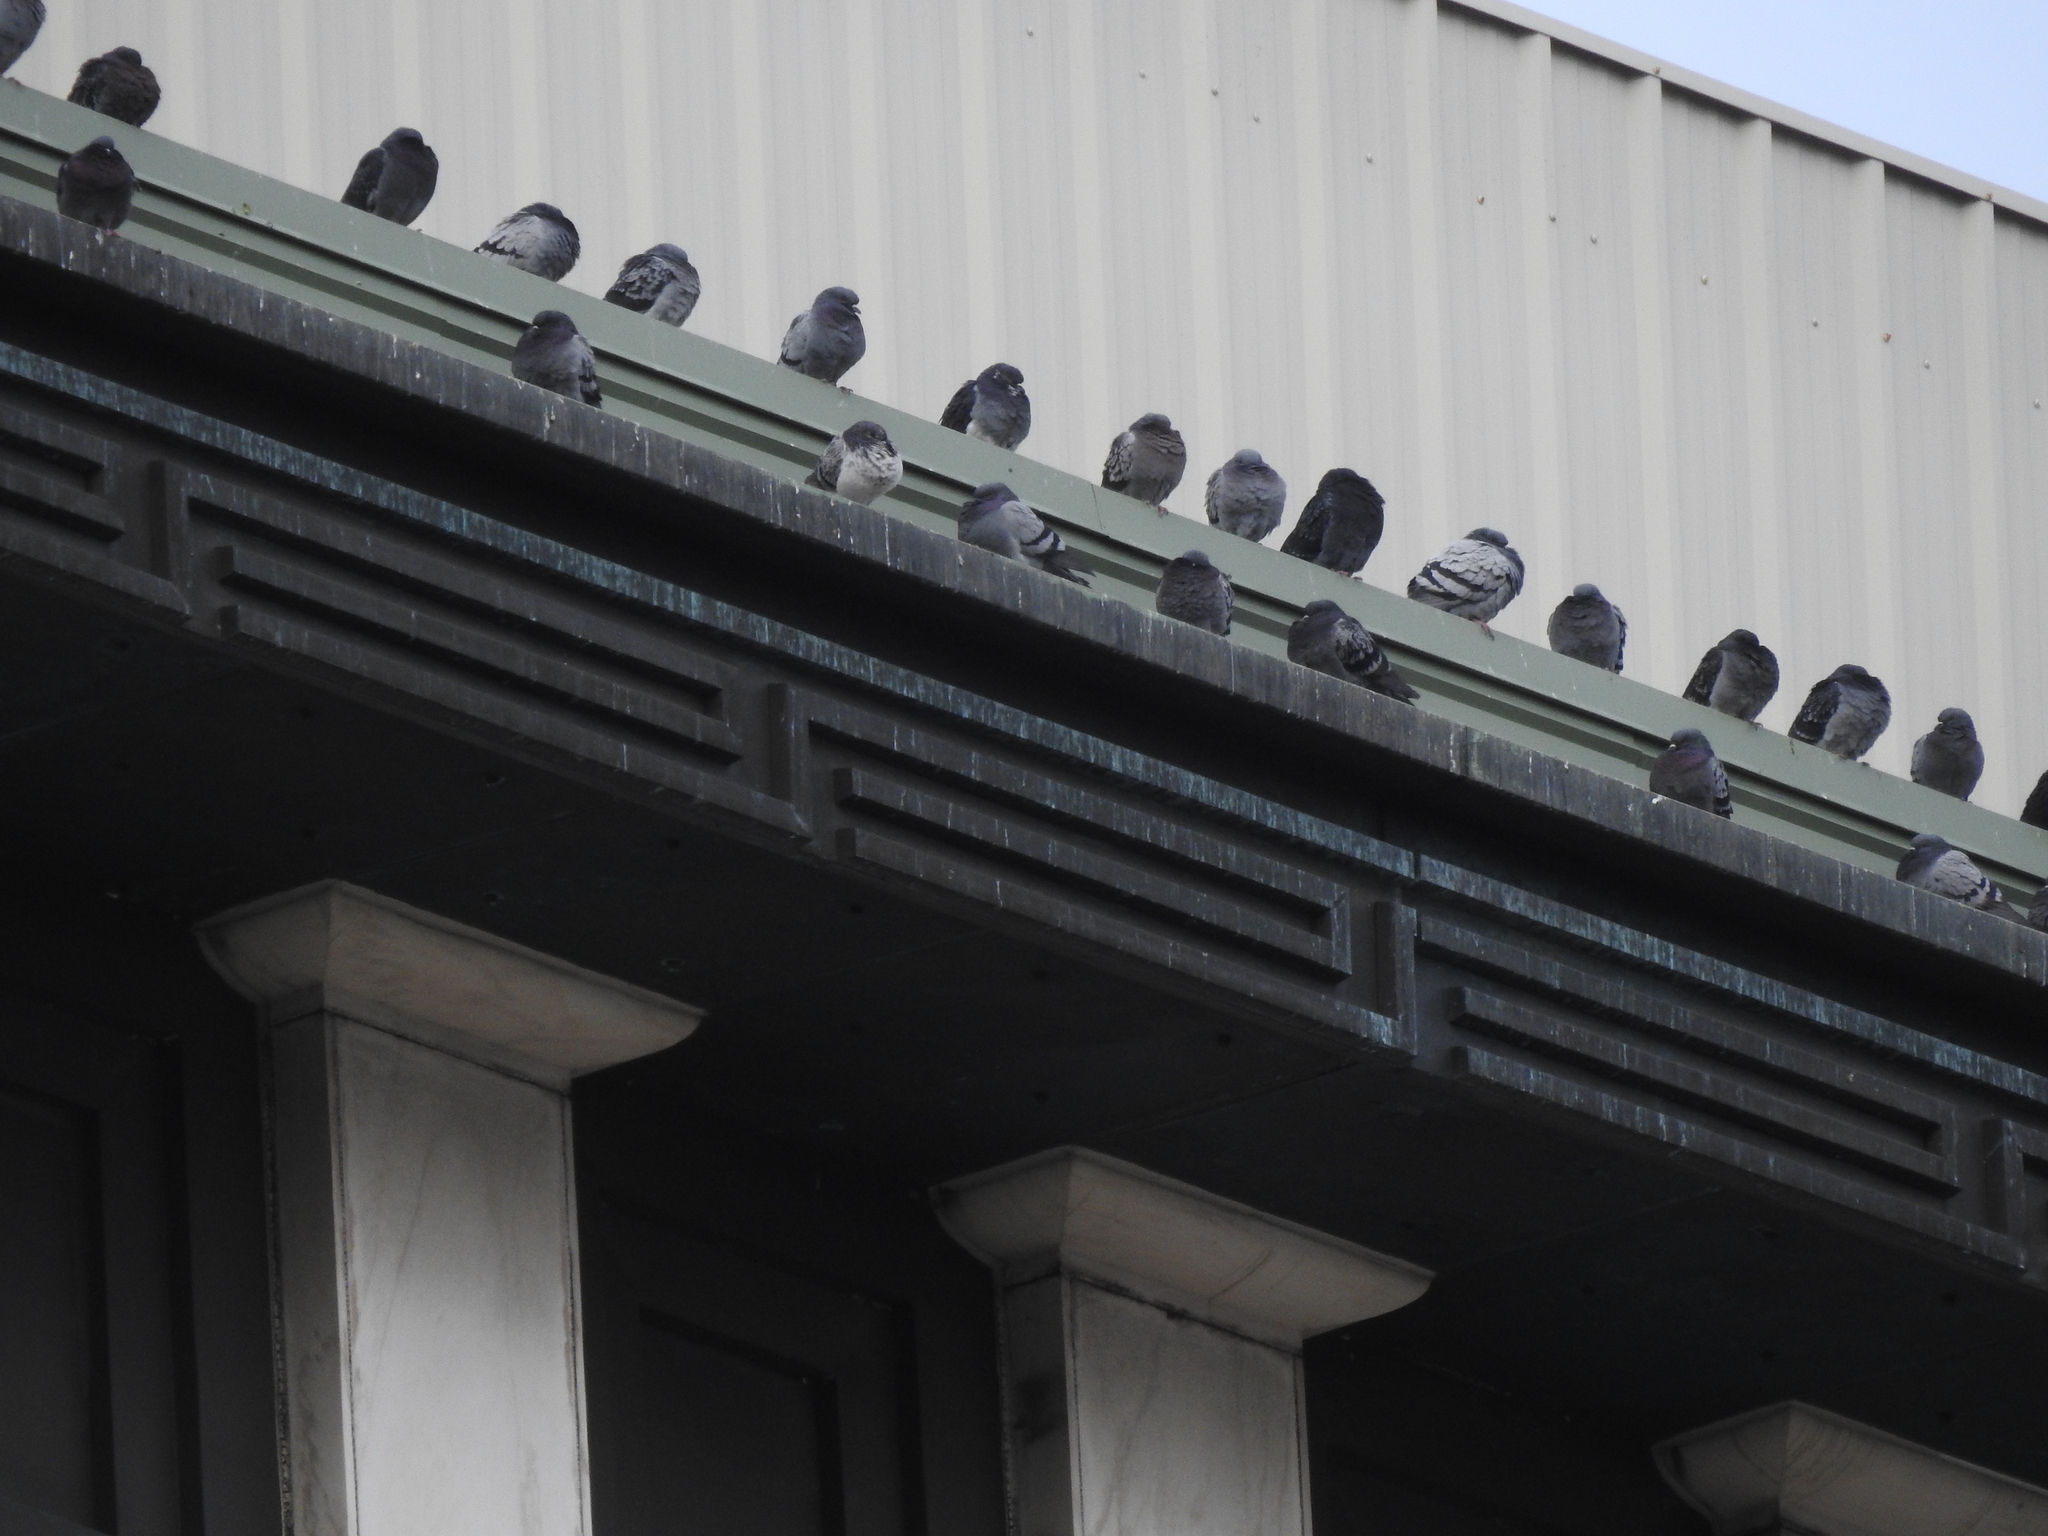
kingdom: Animalia
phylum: Chordata
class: Aves
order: Columbiformes
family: Columbidae
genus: Columba
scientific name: Columba livia
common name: Rock pigeon
